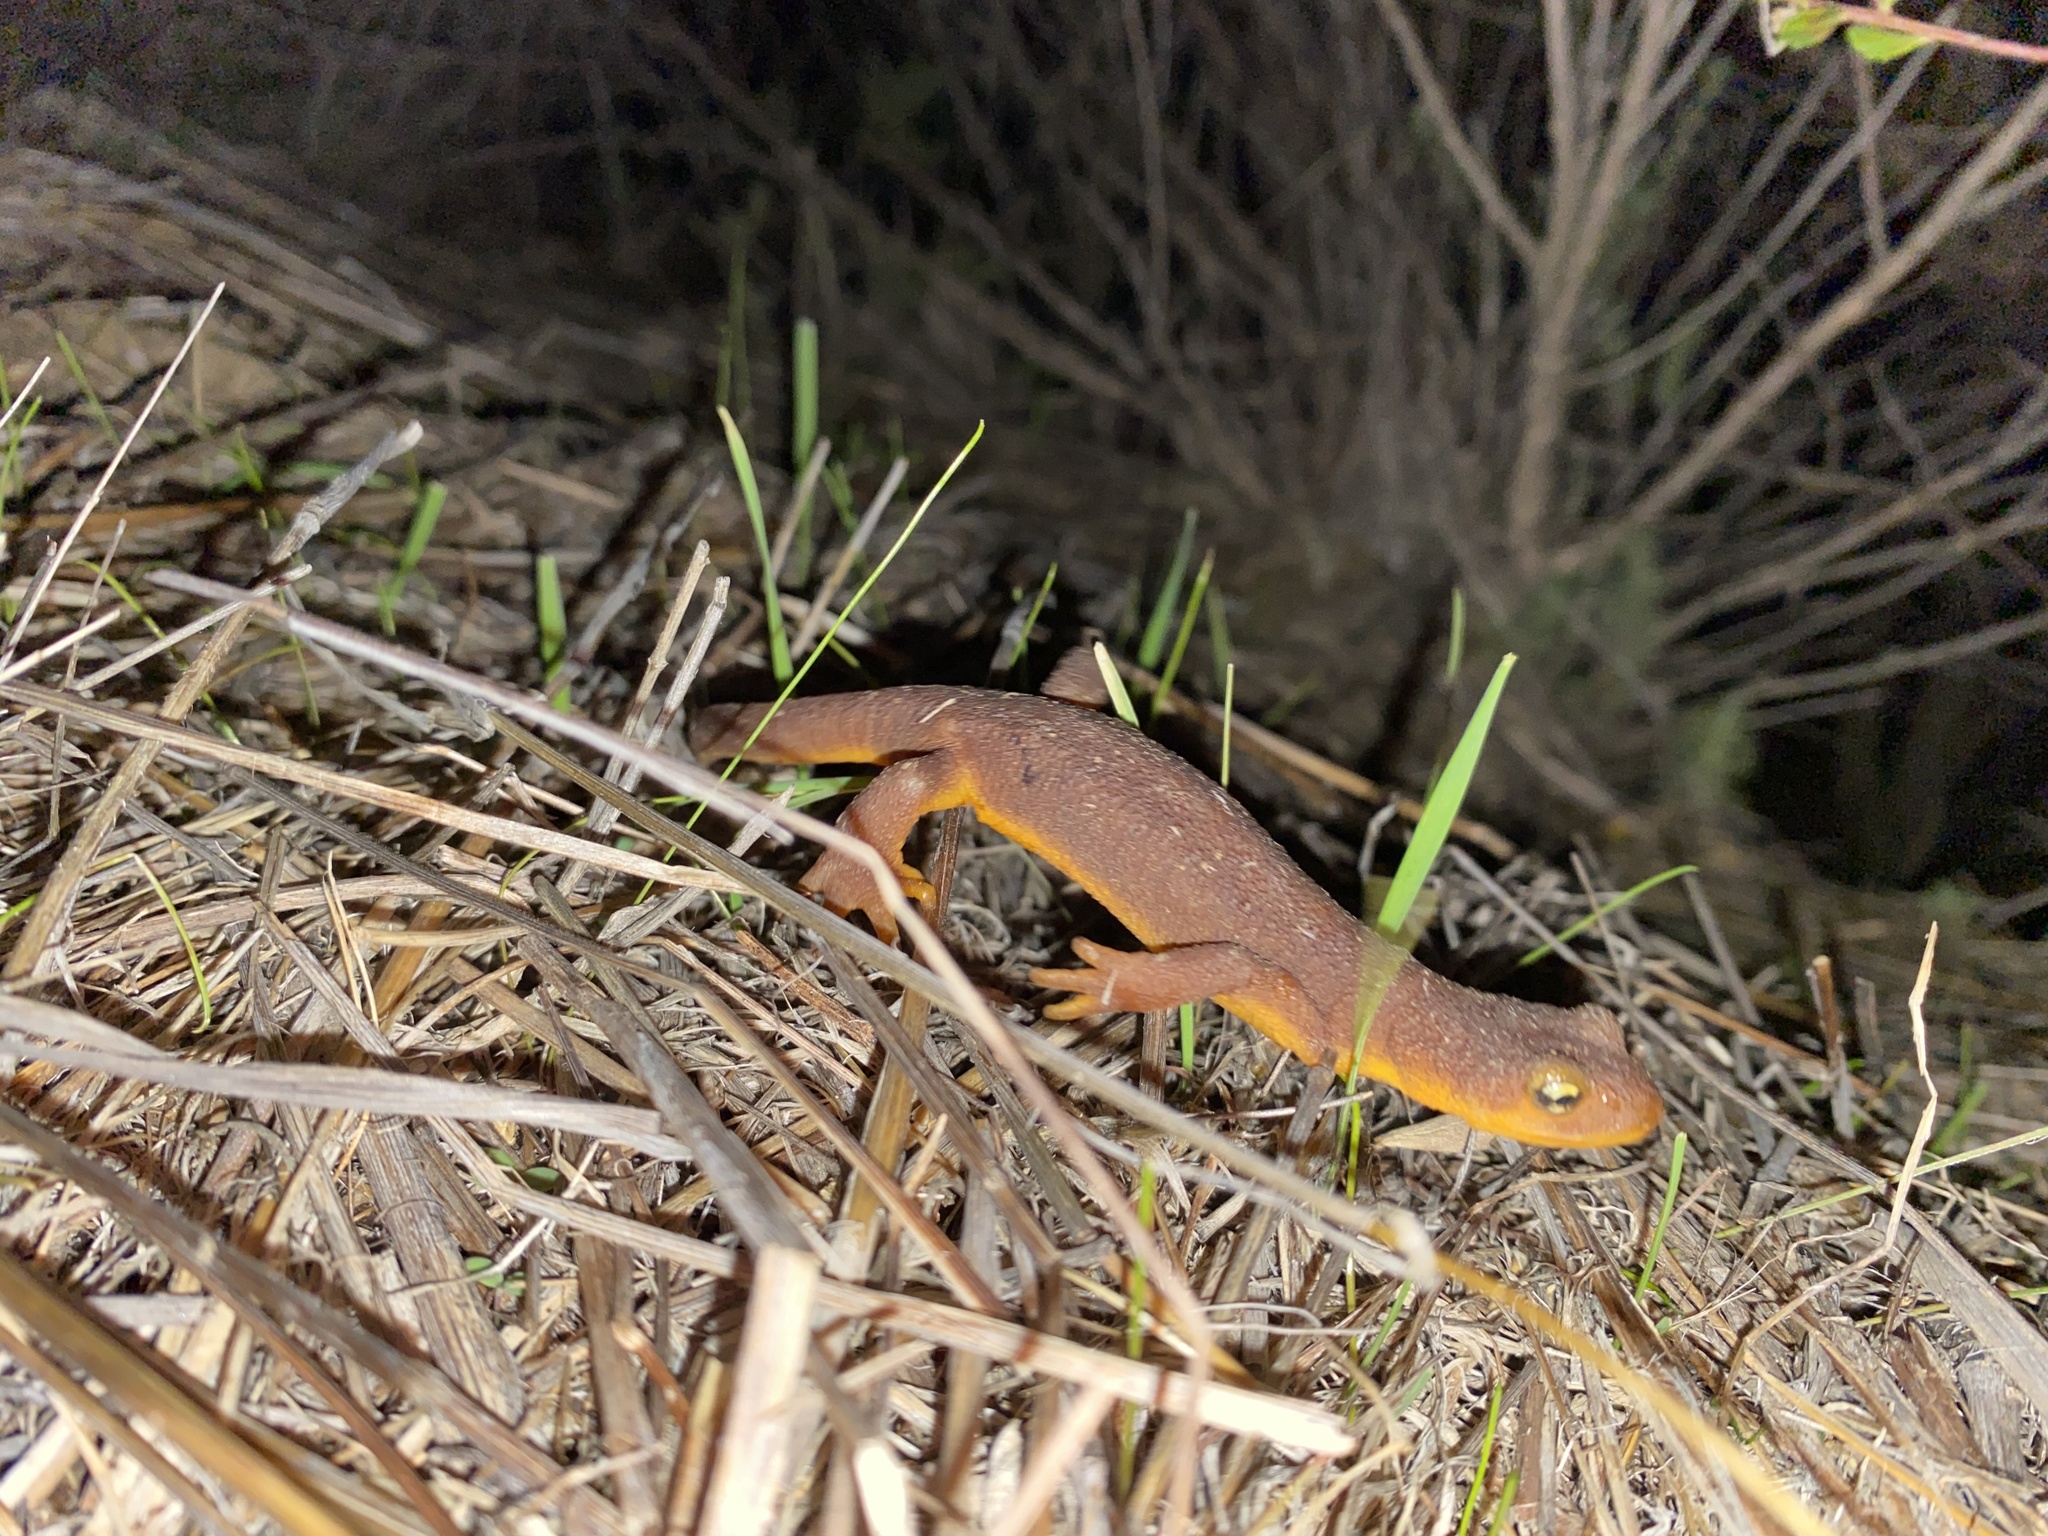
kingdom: Animalia
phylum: Chordata
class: Amphibia
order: Caudata
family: Salamandridae
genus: Taricha
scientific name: Taricha torosa
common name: California newt
